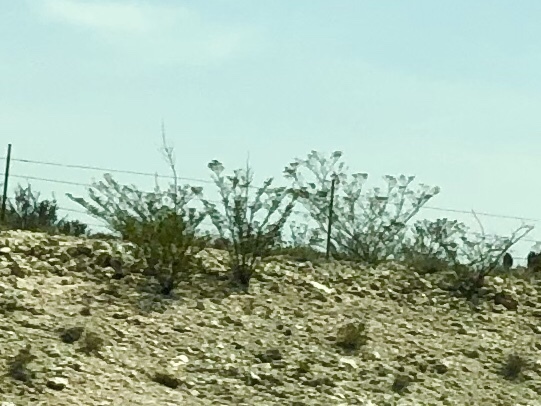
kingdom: Plantae
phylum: Tracheophyta
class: Magnoliopsida
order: Zygophyllales
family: Zygophyllaceae
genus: Larrea
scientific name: Larrea tridentata
